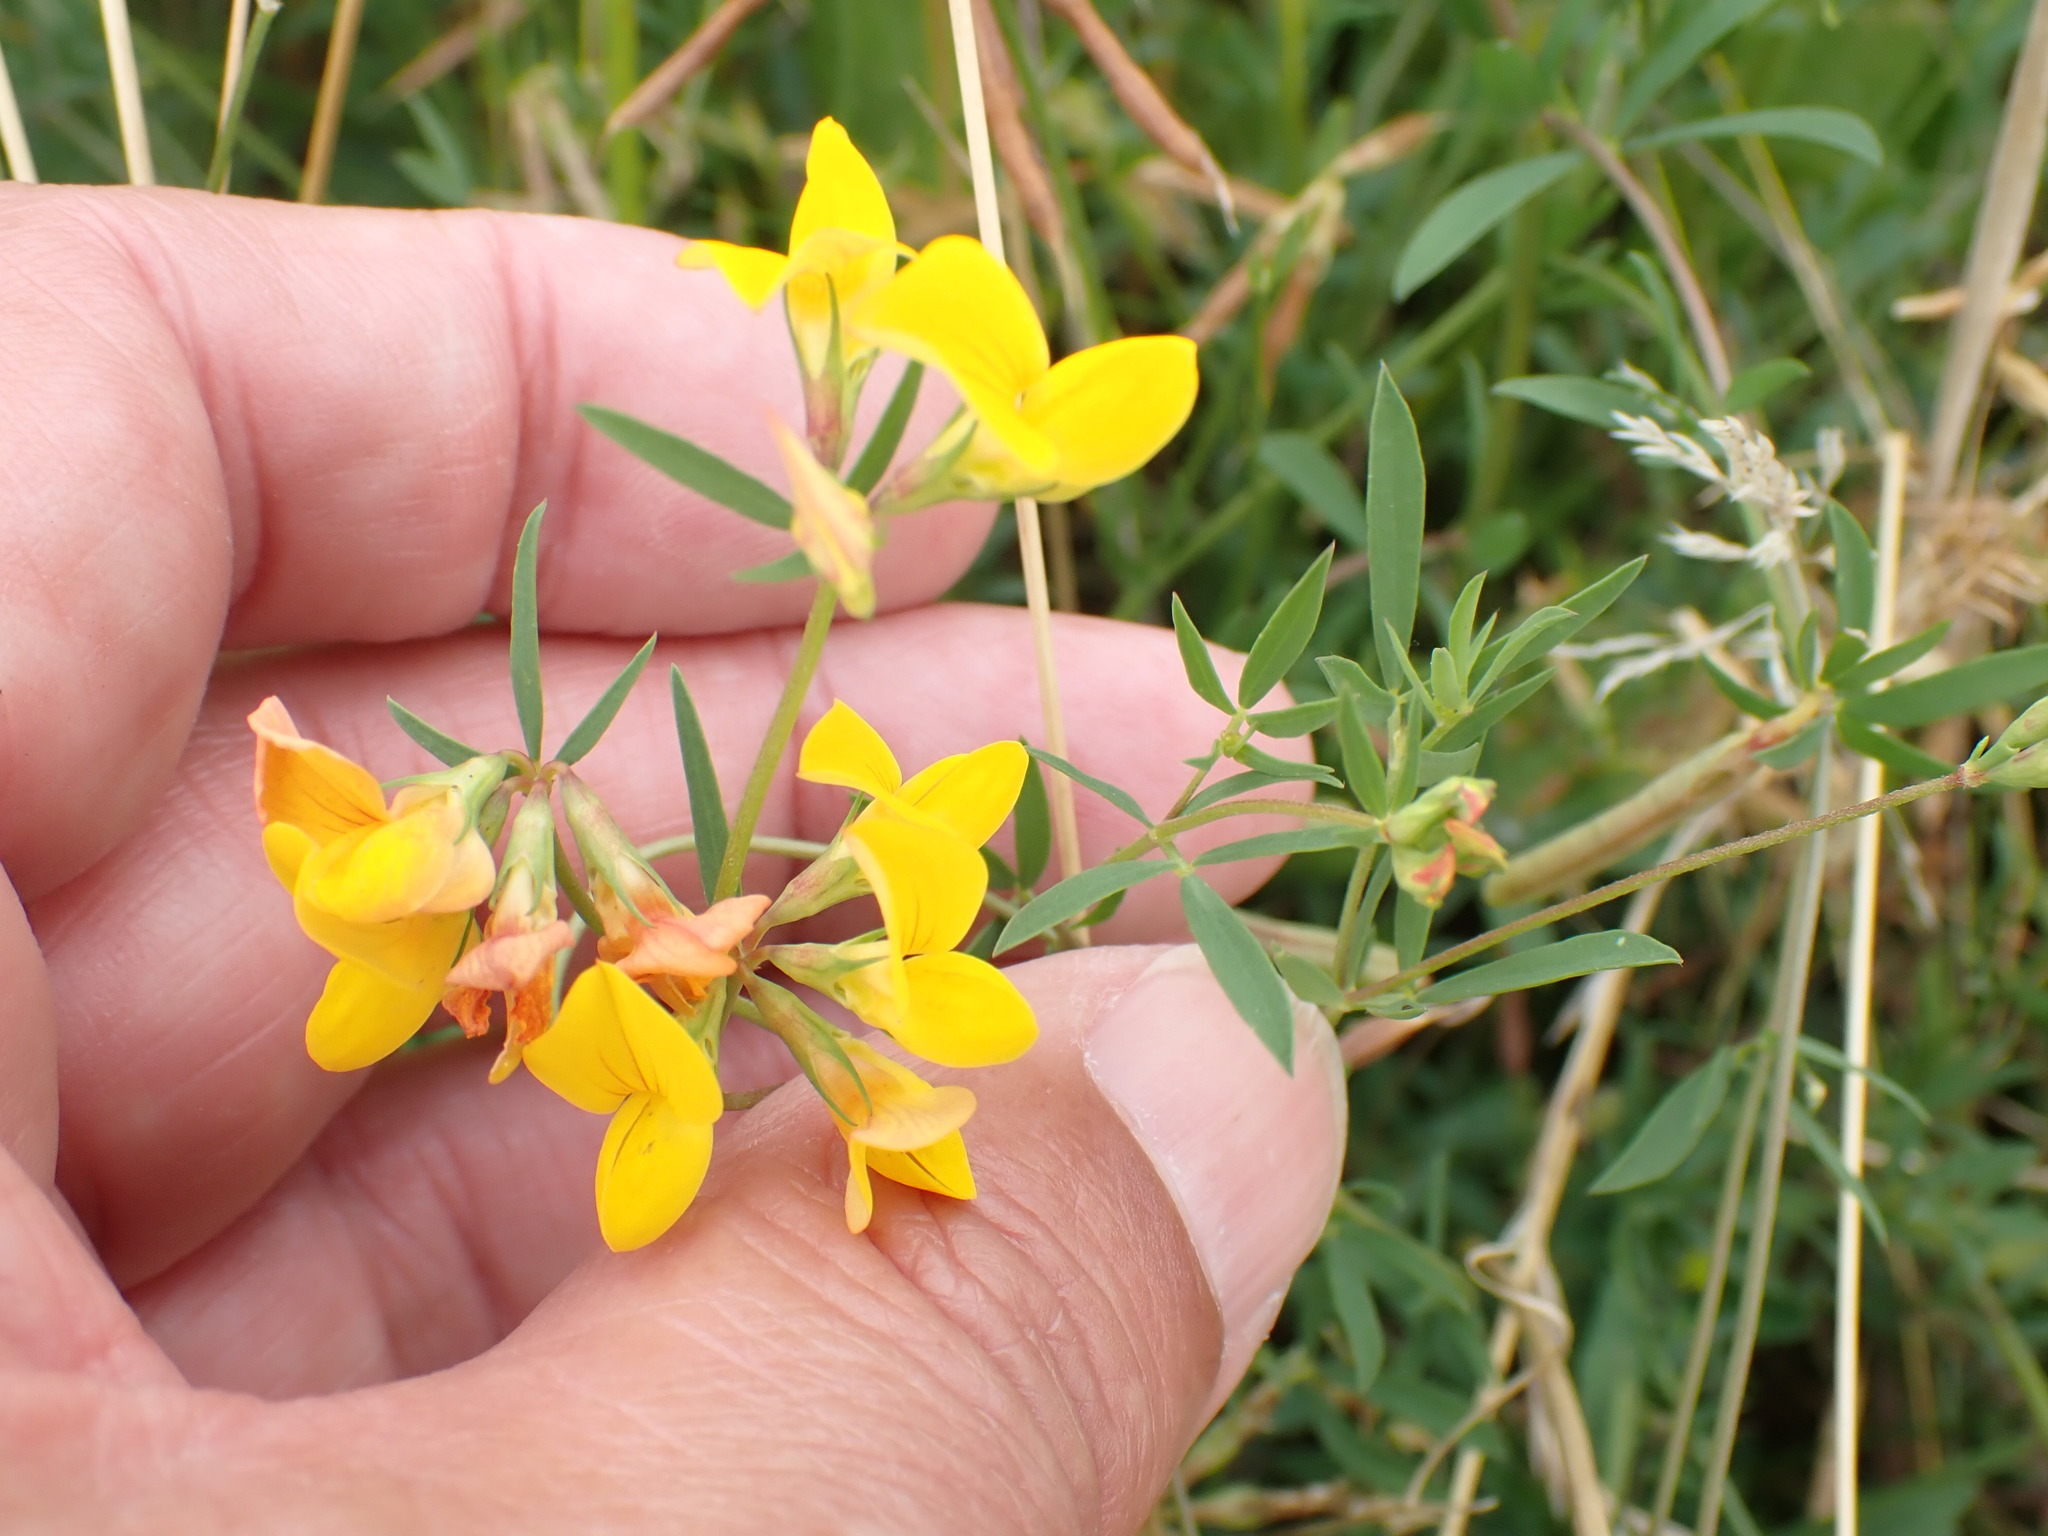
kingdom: Plantae
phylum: Tracheophyta
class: Magnoliopsida
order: Fabales
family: Fabaceae
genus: Lotus
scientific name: Lotus tenuis
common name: Narrow-leaved bird's-foot-trefoil
